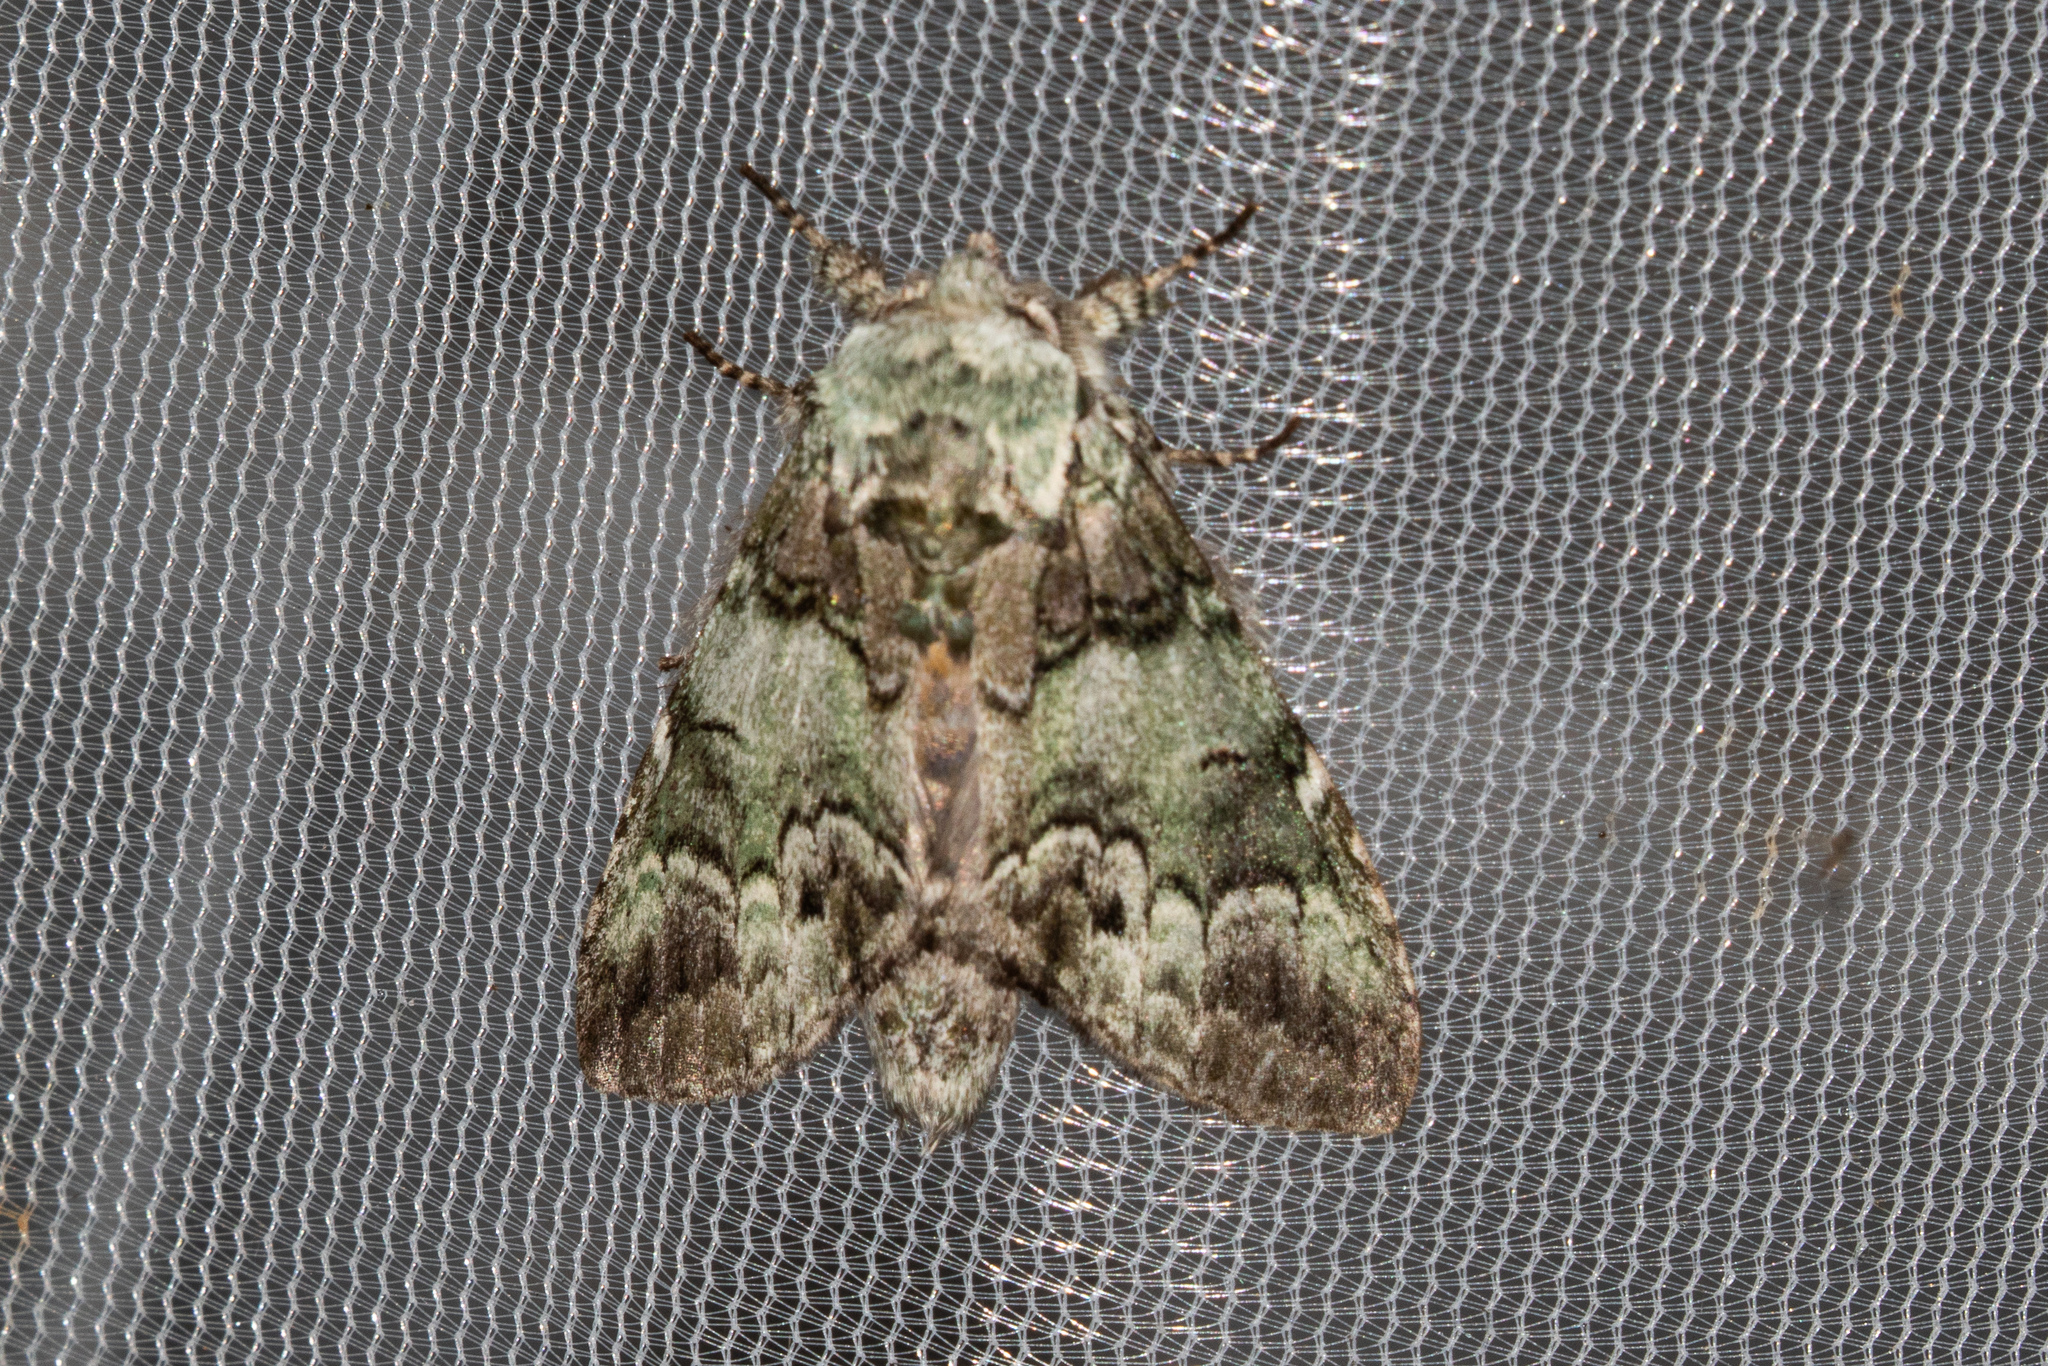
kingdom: Animalia
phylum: Arthropoda
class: Insecta
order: Lepidoptera
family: Notodontidae
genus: Macrurocampa
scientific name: Macrurocampa marthesia
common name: Mottled prominent
